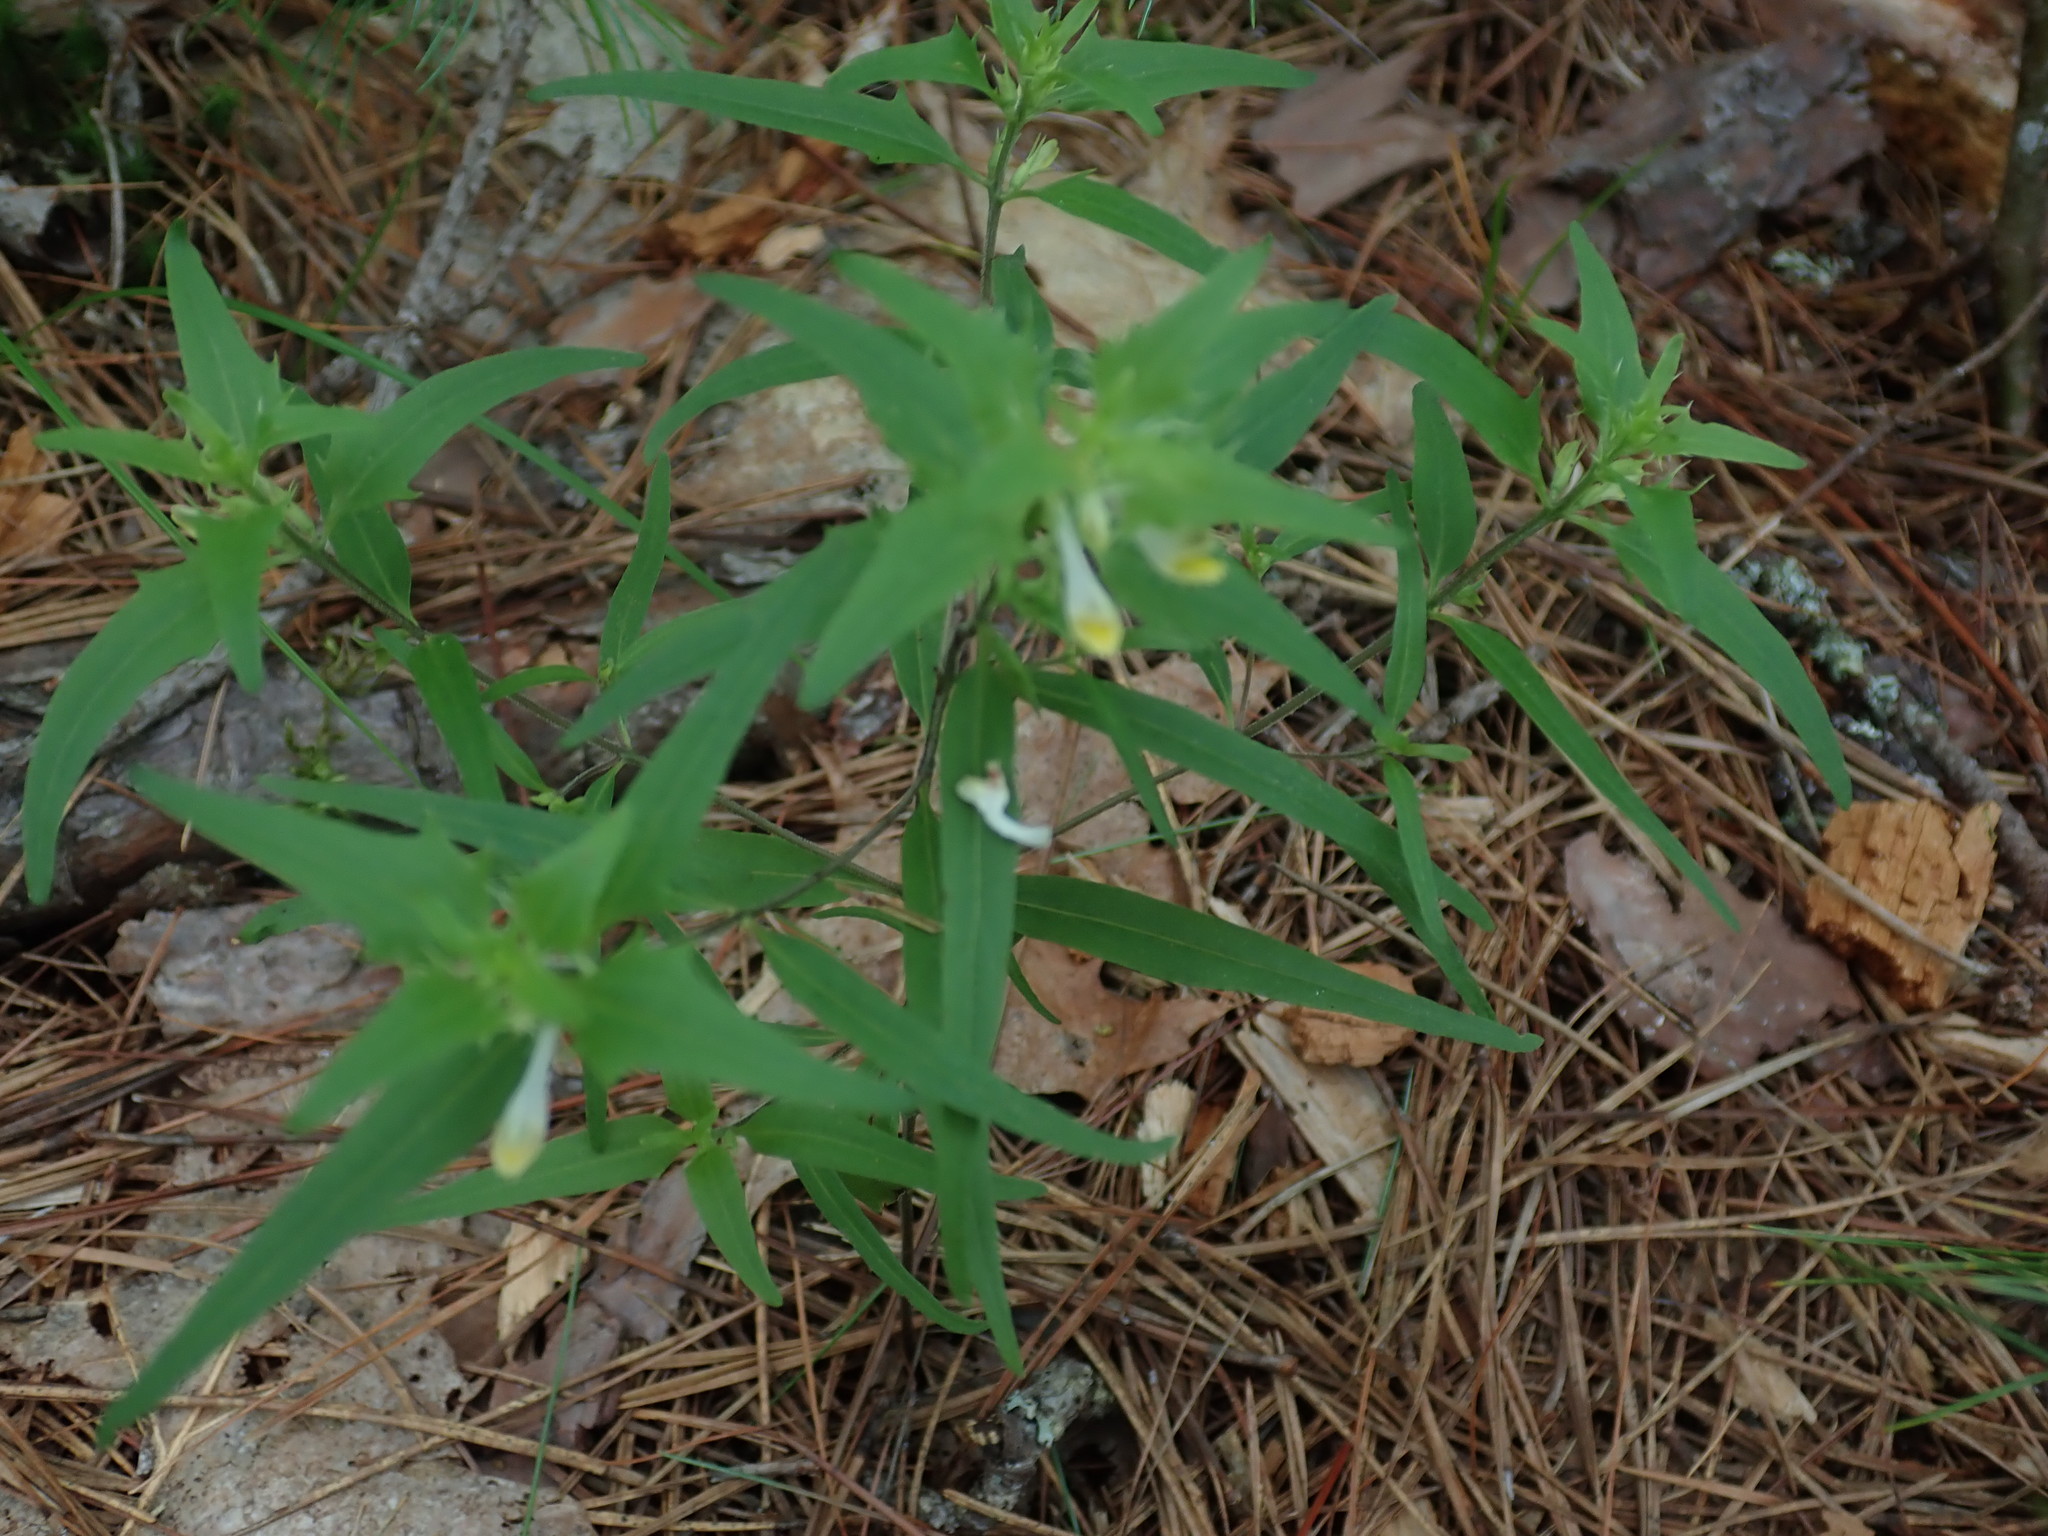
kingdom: Plantae
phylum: Tracheophyta
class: Magnoliopsida
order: Lamiales
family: Orobanchaceae
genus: Melampyrum
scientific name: Melampyrum lineare
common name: American cow-wheat
